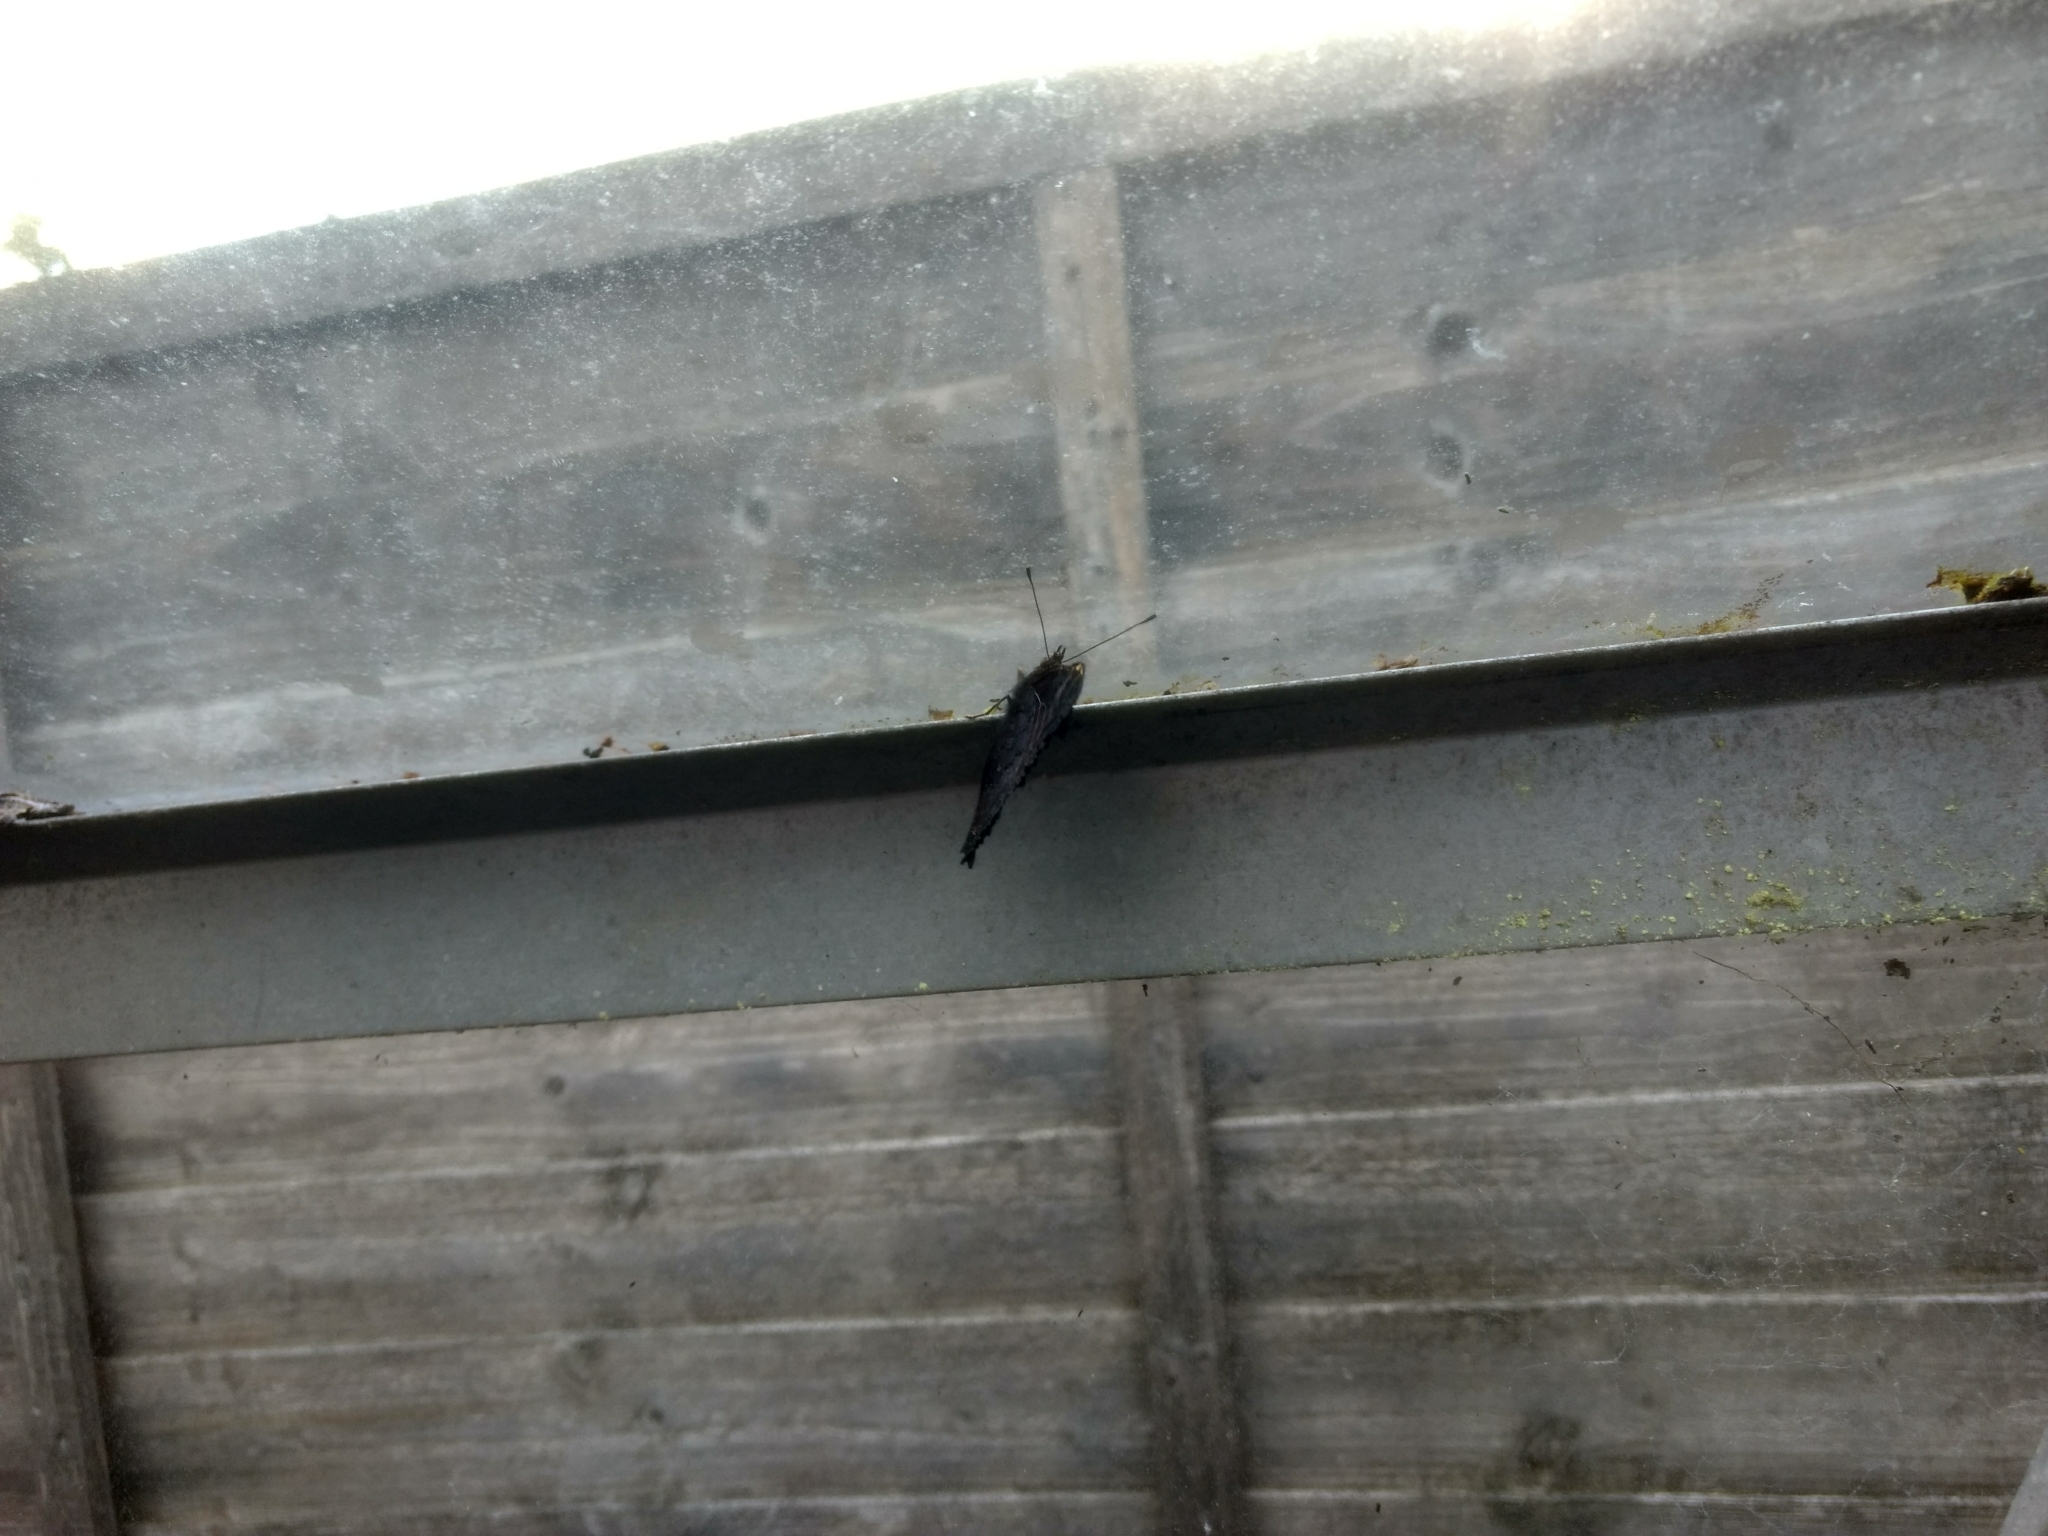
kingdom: Animalia
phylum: Arthropoda
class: Insecta
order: Lepidoptera
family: Nymphalidae
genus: Aglais
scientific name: Aglais io
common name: Peacock
